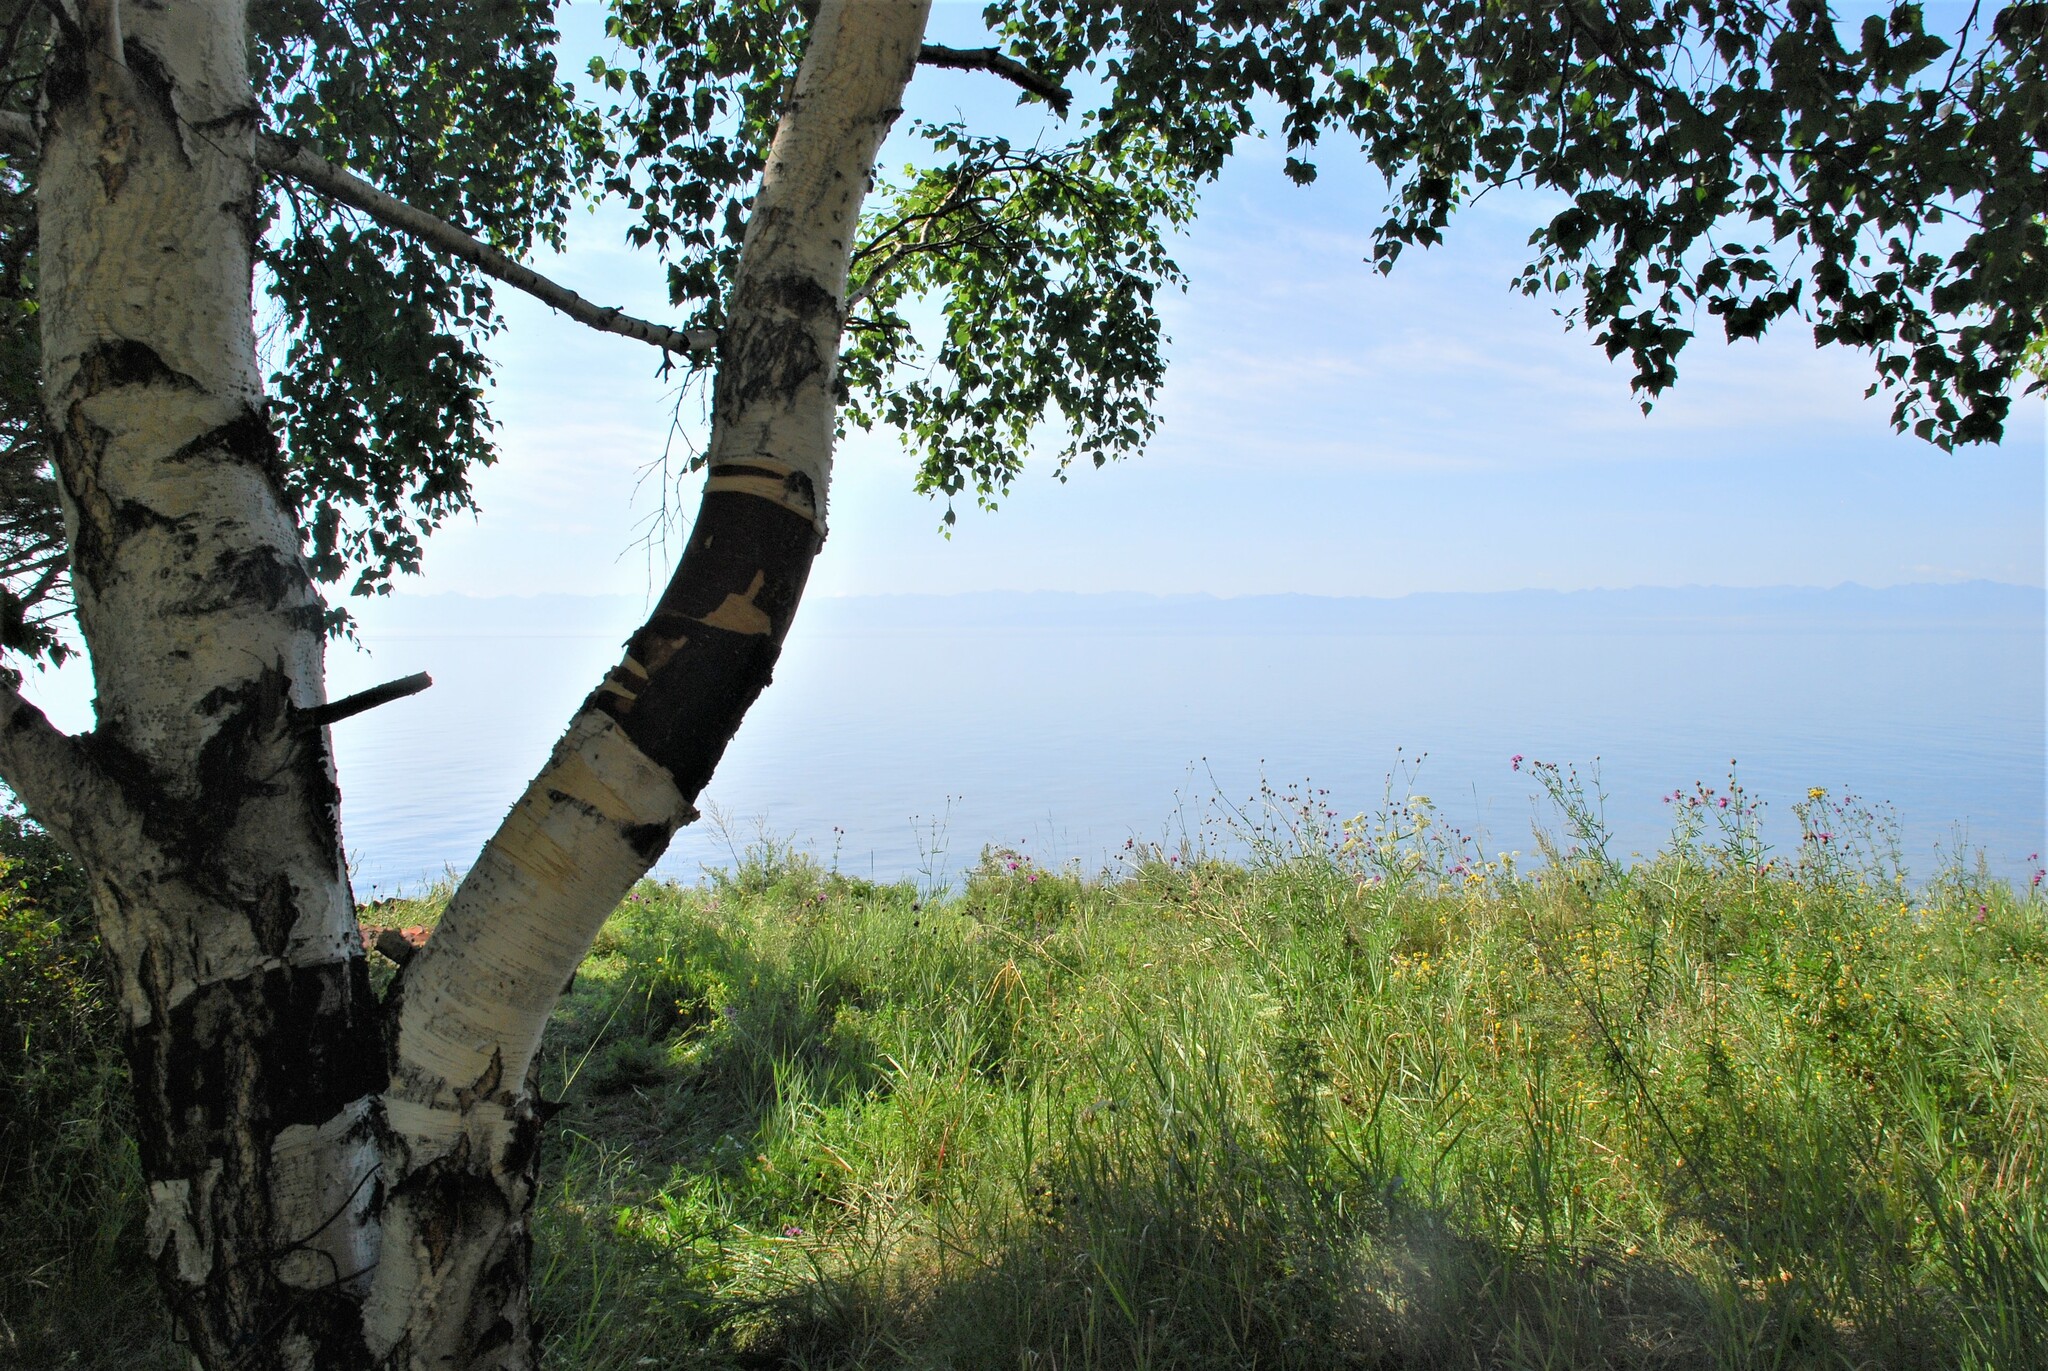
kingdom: Plantae
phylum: Tracheophyta
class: Magnoliopsida
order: Fagales
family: Betulaceae
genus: Betula
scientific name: Betula pendula
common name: Silver birch
